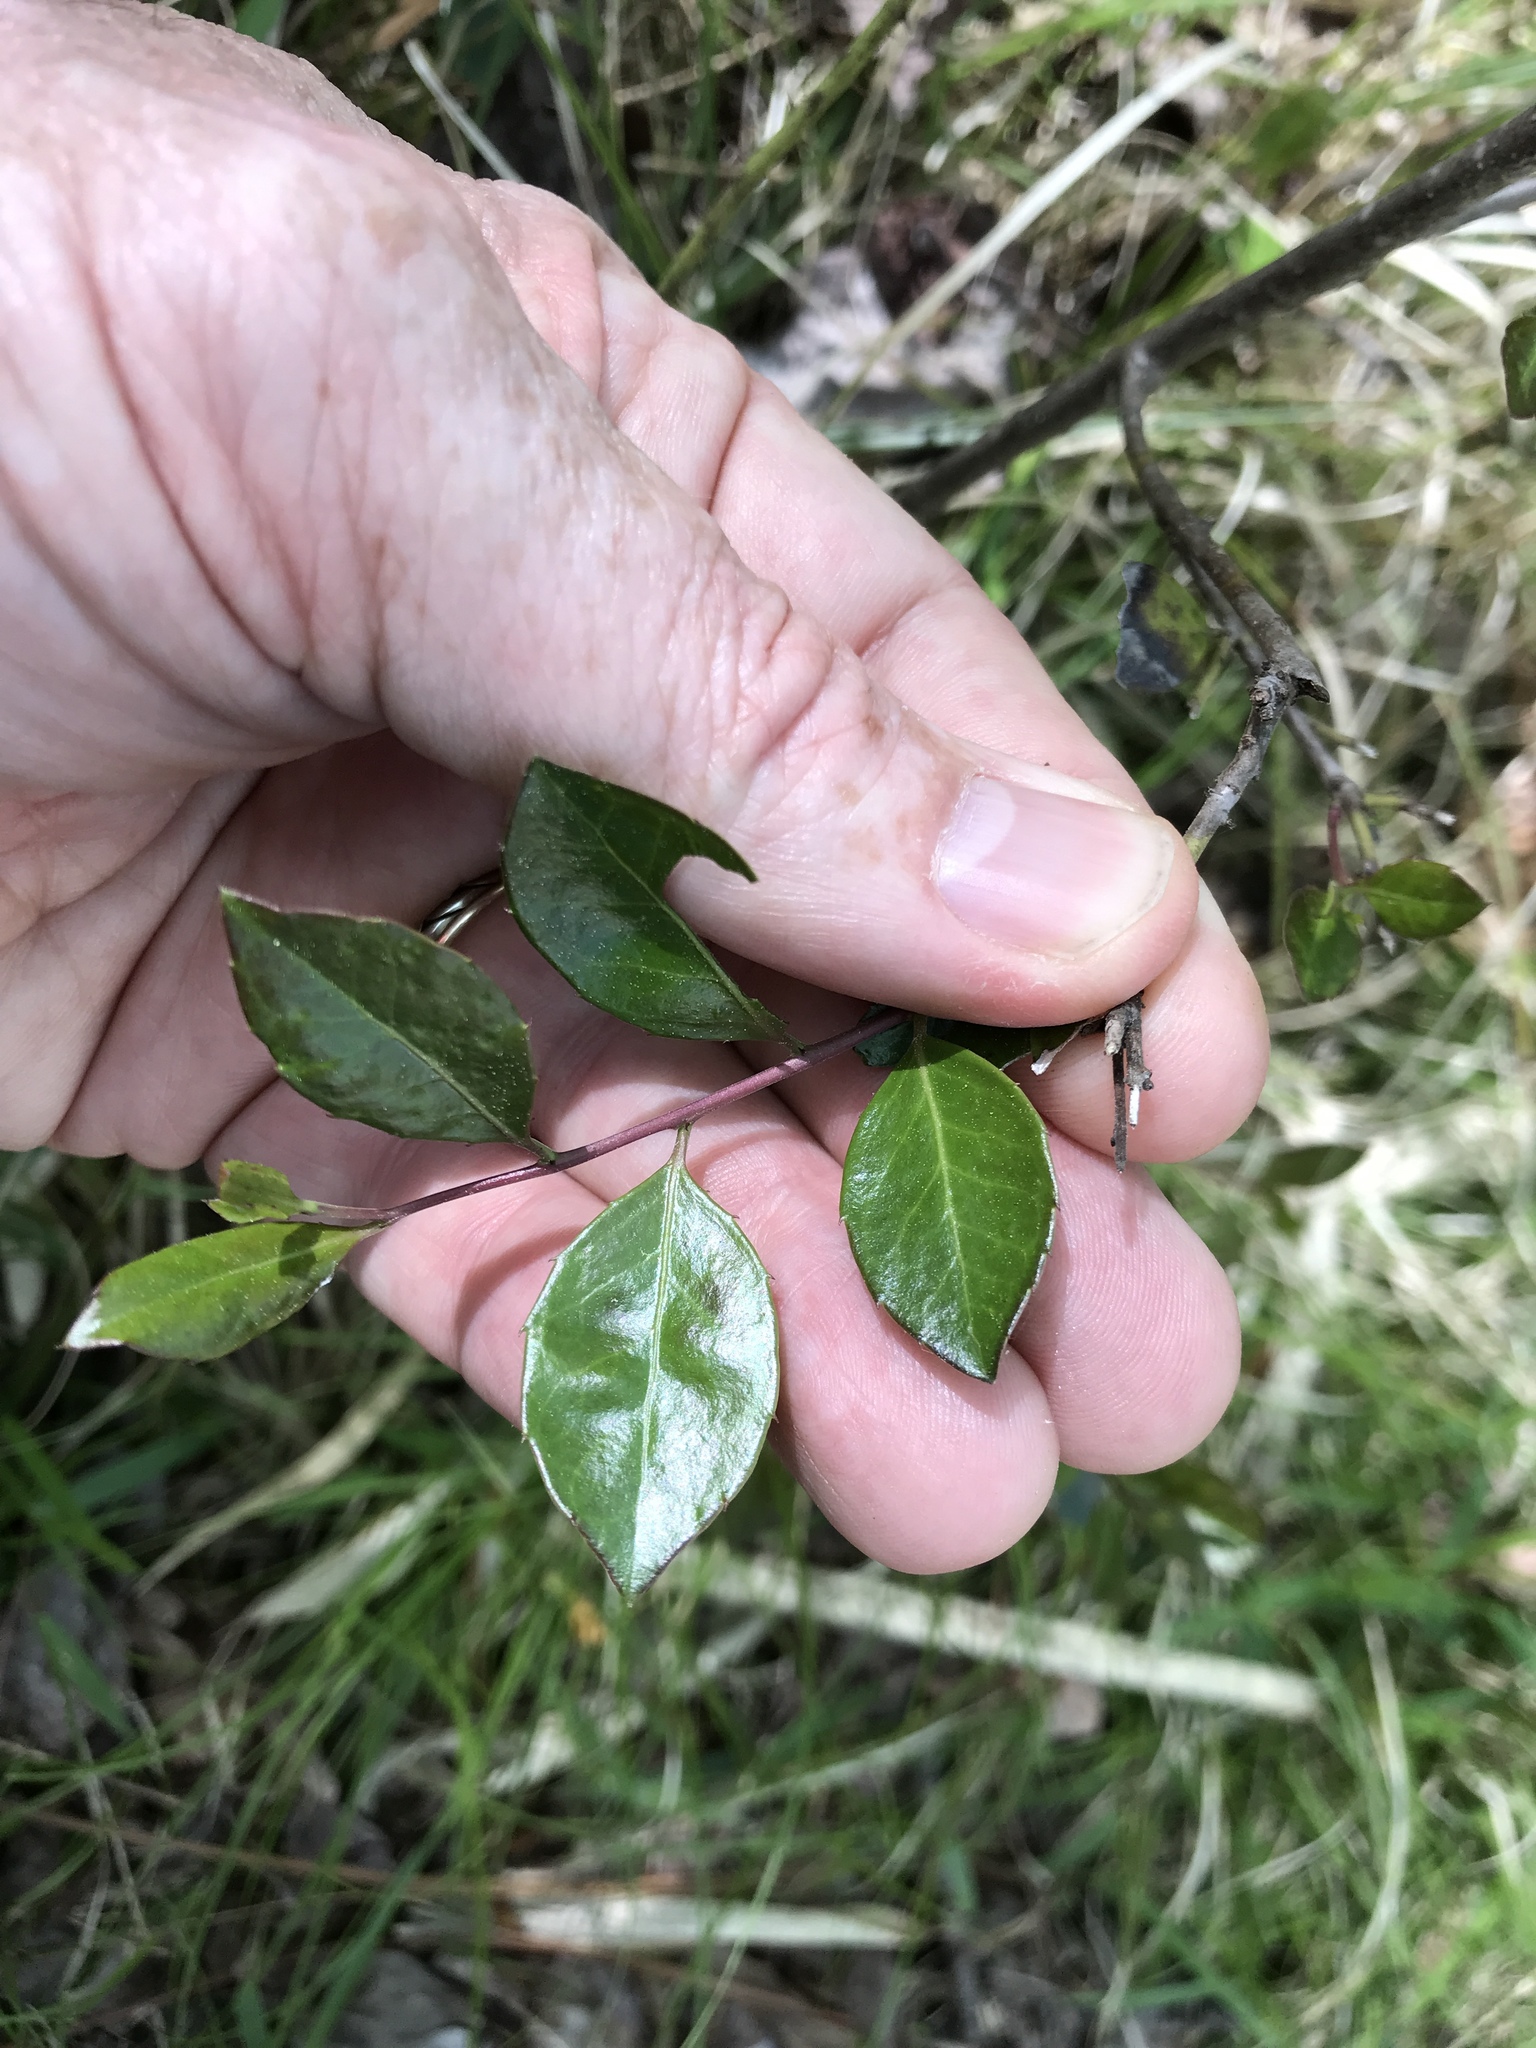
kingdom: Plantae
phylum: Tracheophyta
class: Magnoliopsida
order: Aquifoliales
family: Aquifoliaceae
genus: Ilex
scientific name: Ilex coriacea
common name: Sweet gallberry
